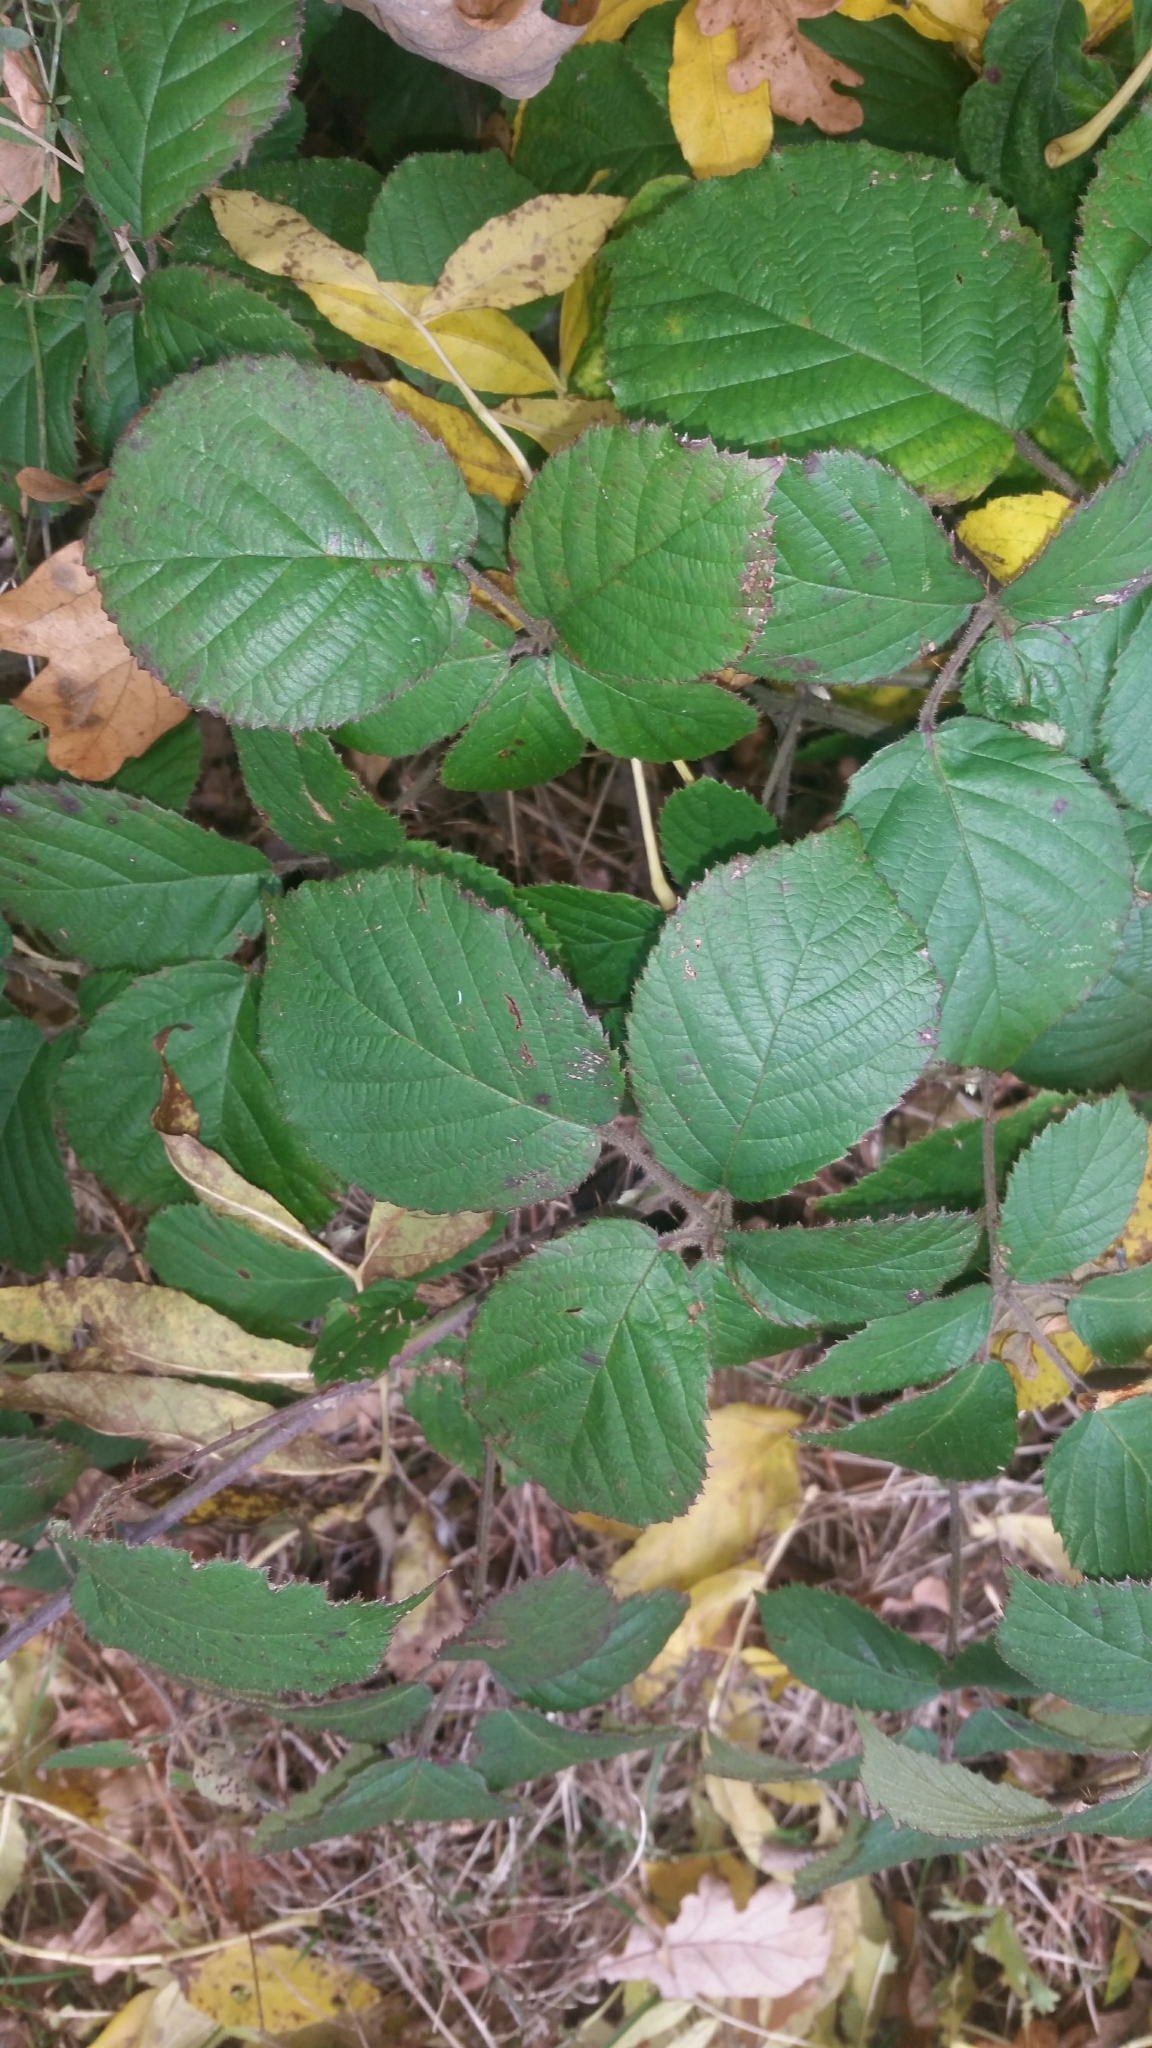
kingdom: Plantae
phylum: Tracheophyta
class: Magnoliopsida
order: Rosales
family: Rosaceae
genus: Rubus
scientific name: Rubus vestitus
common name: European blackberry
